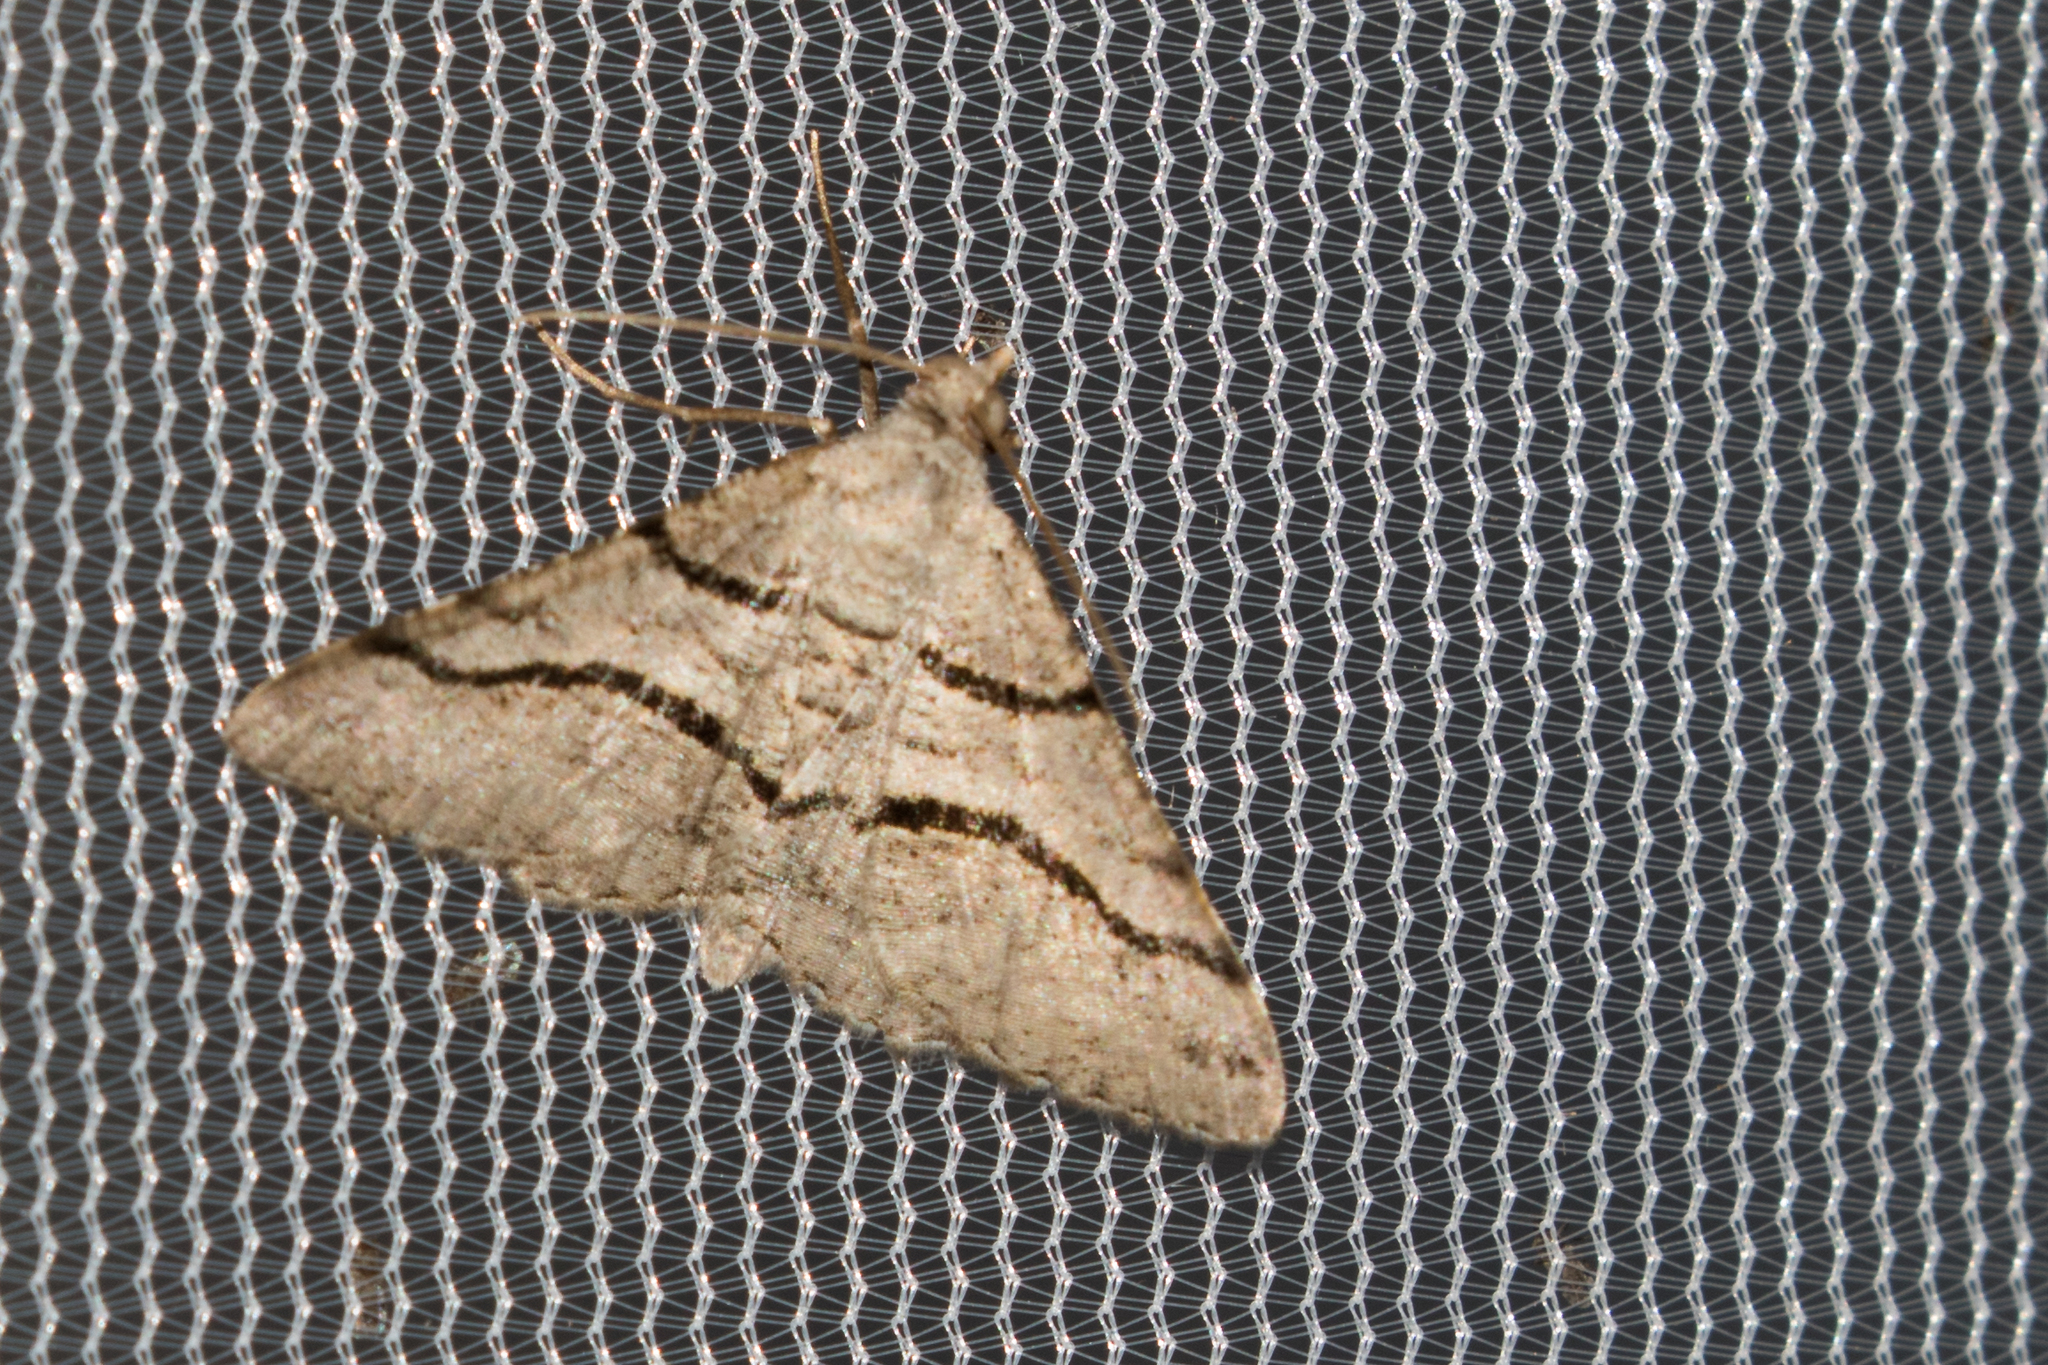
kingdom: Animalia
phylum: Arthropoda
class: Insecta
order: Lepidoptera
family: Geometridae
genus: Digrammia
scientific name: Digrammia continuata
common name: Curve-lined angle
